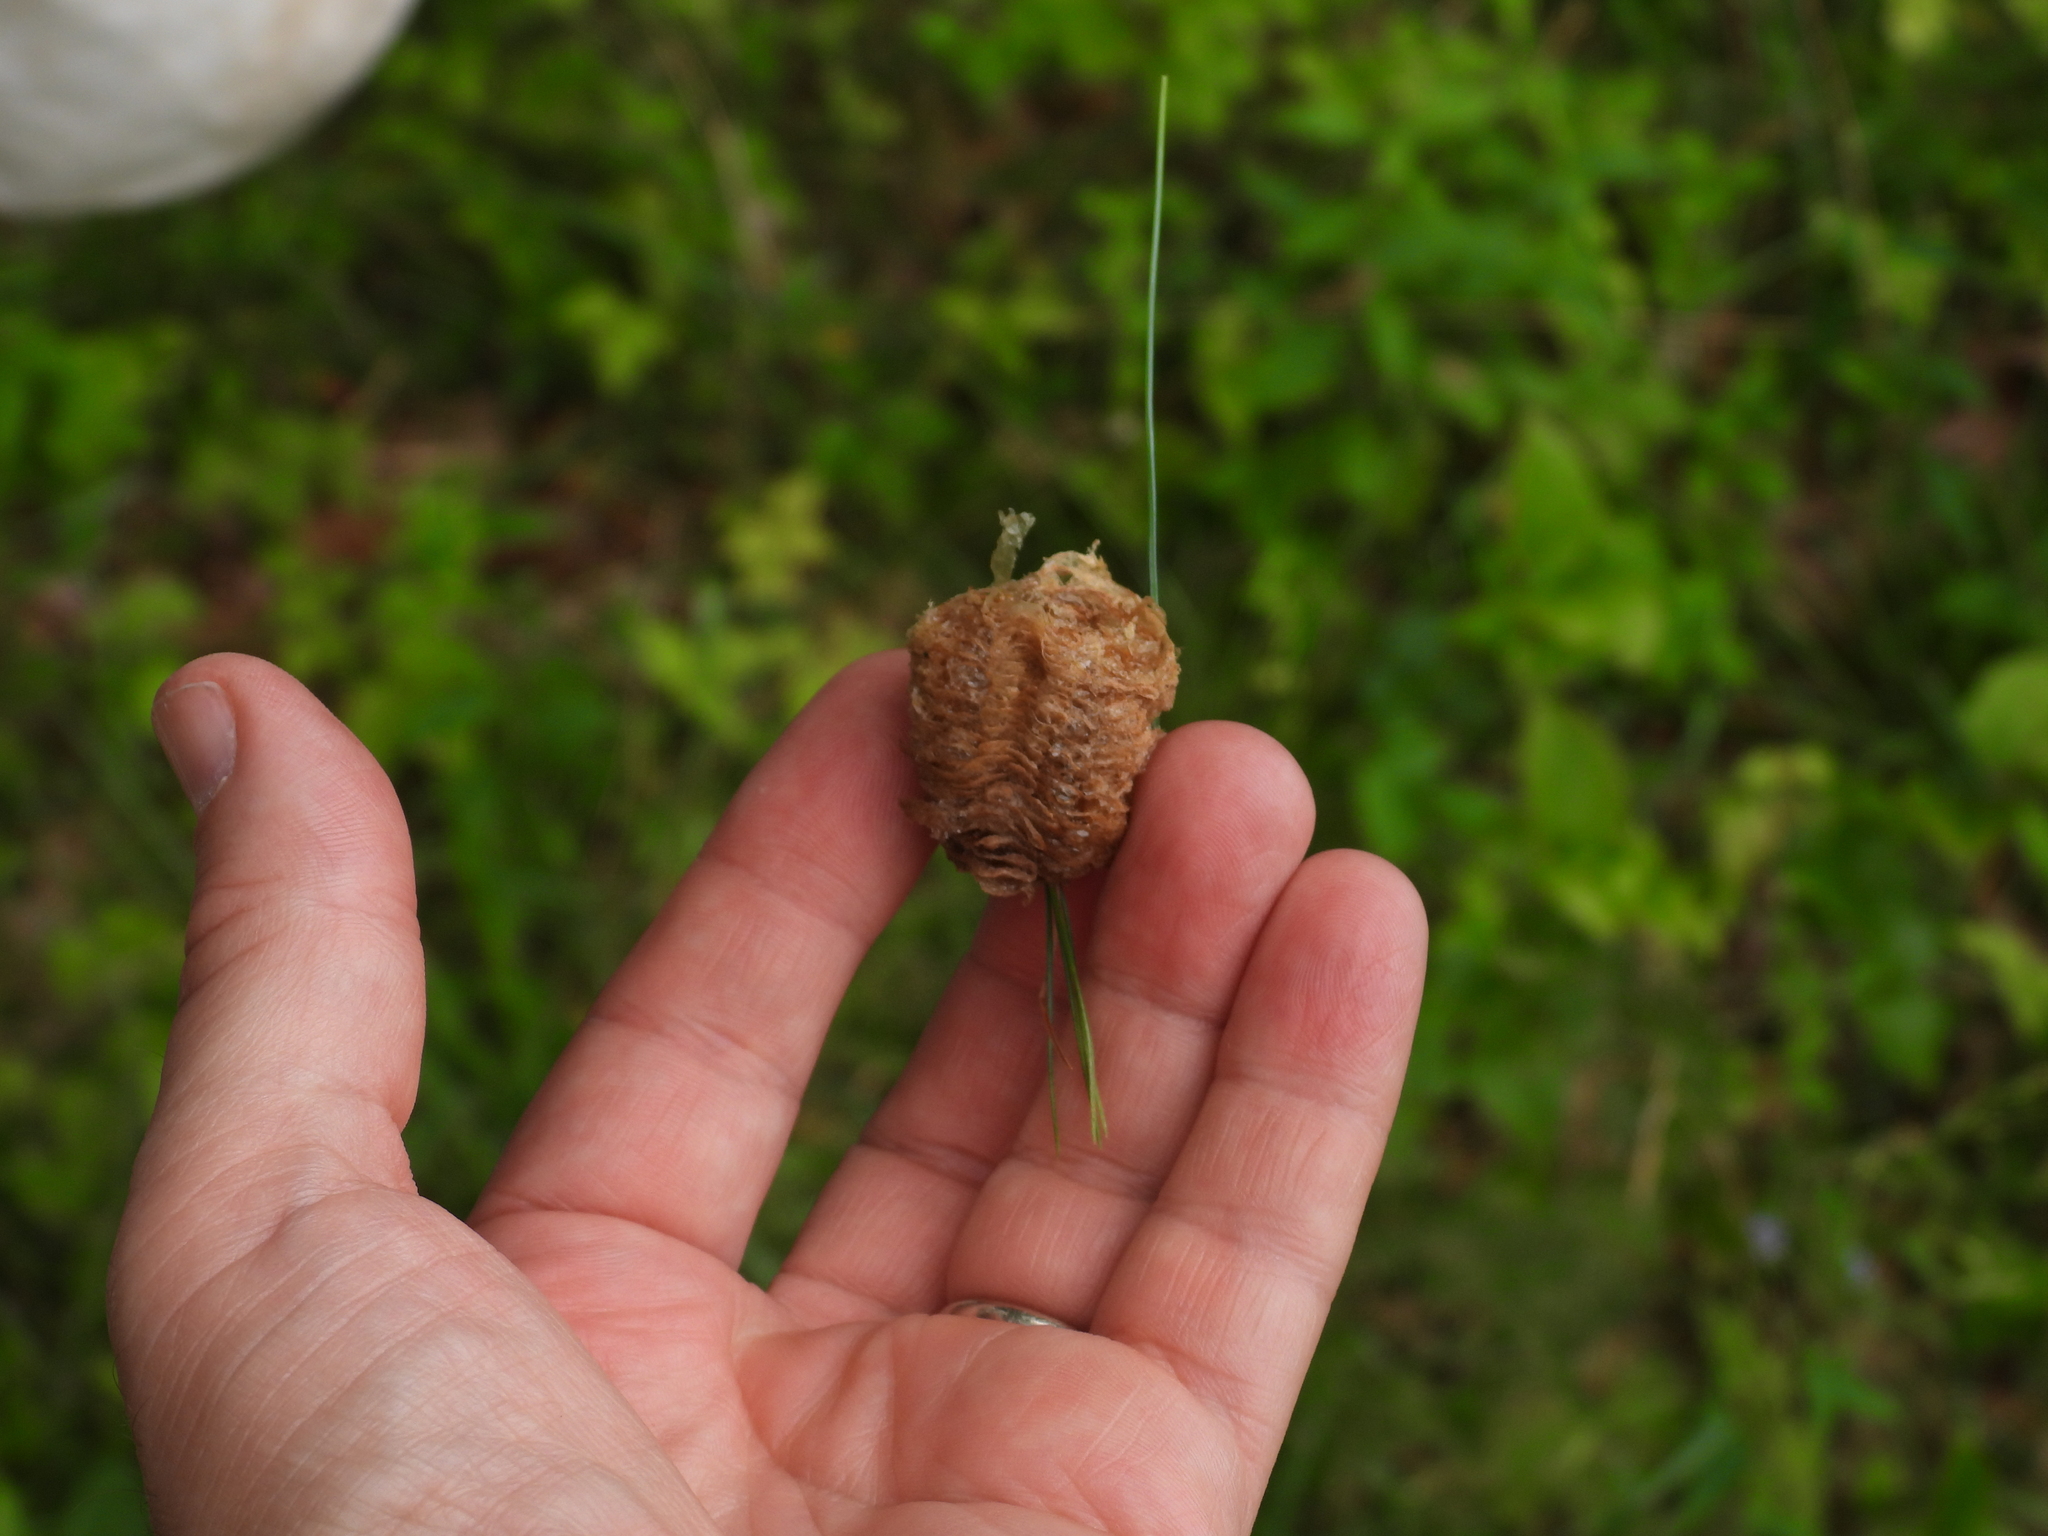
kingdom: Animalia
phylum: Arthropoda
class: Insecta
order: Mantodea
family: Mantidae
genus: Tenodera
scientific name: Tenodera sinensis
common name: Chinese mantis
